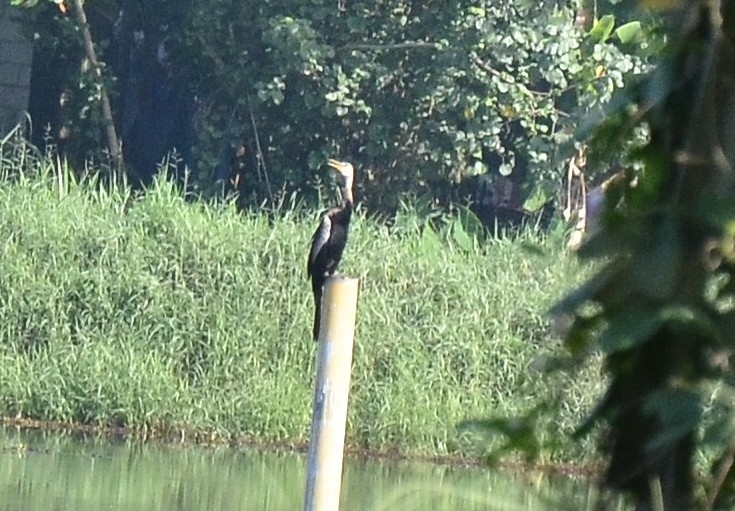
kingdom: Animalia
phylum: Chordata
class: Aves
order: Suliformes
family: Anhingidae
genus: Anhinga
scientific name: Anhinga melanogaster
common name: Oriental darter
